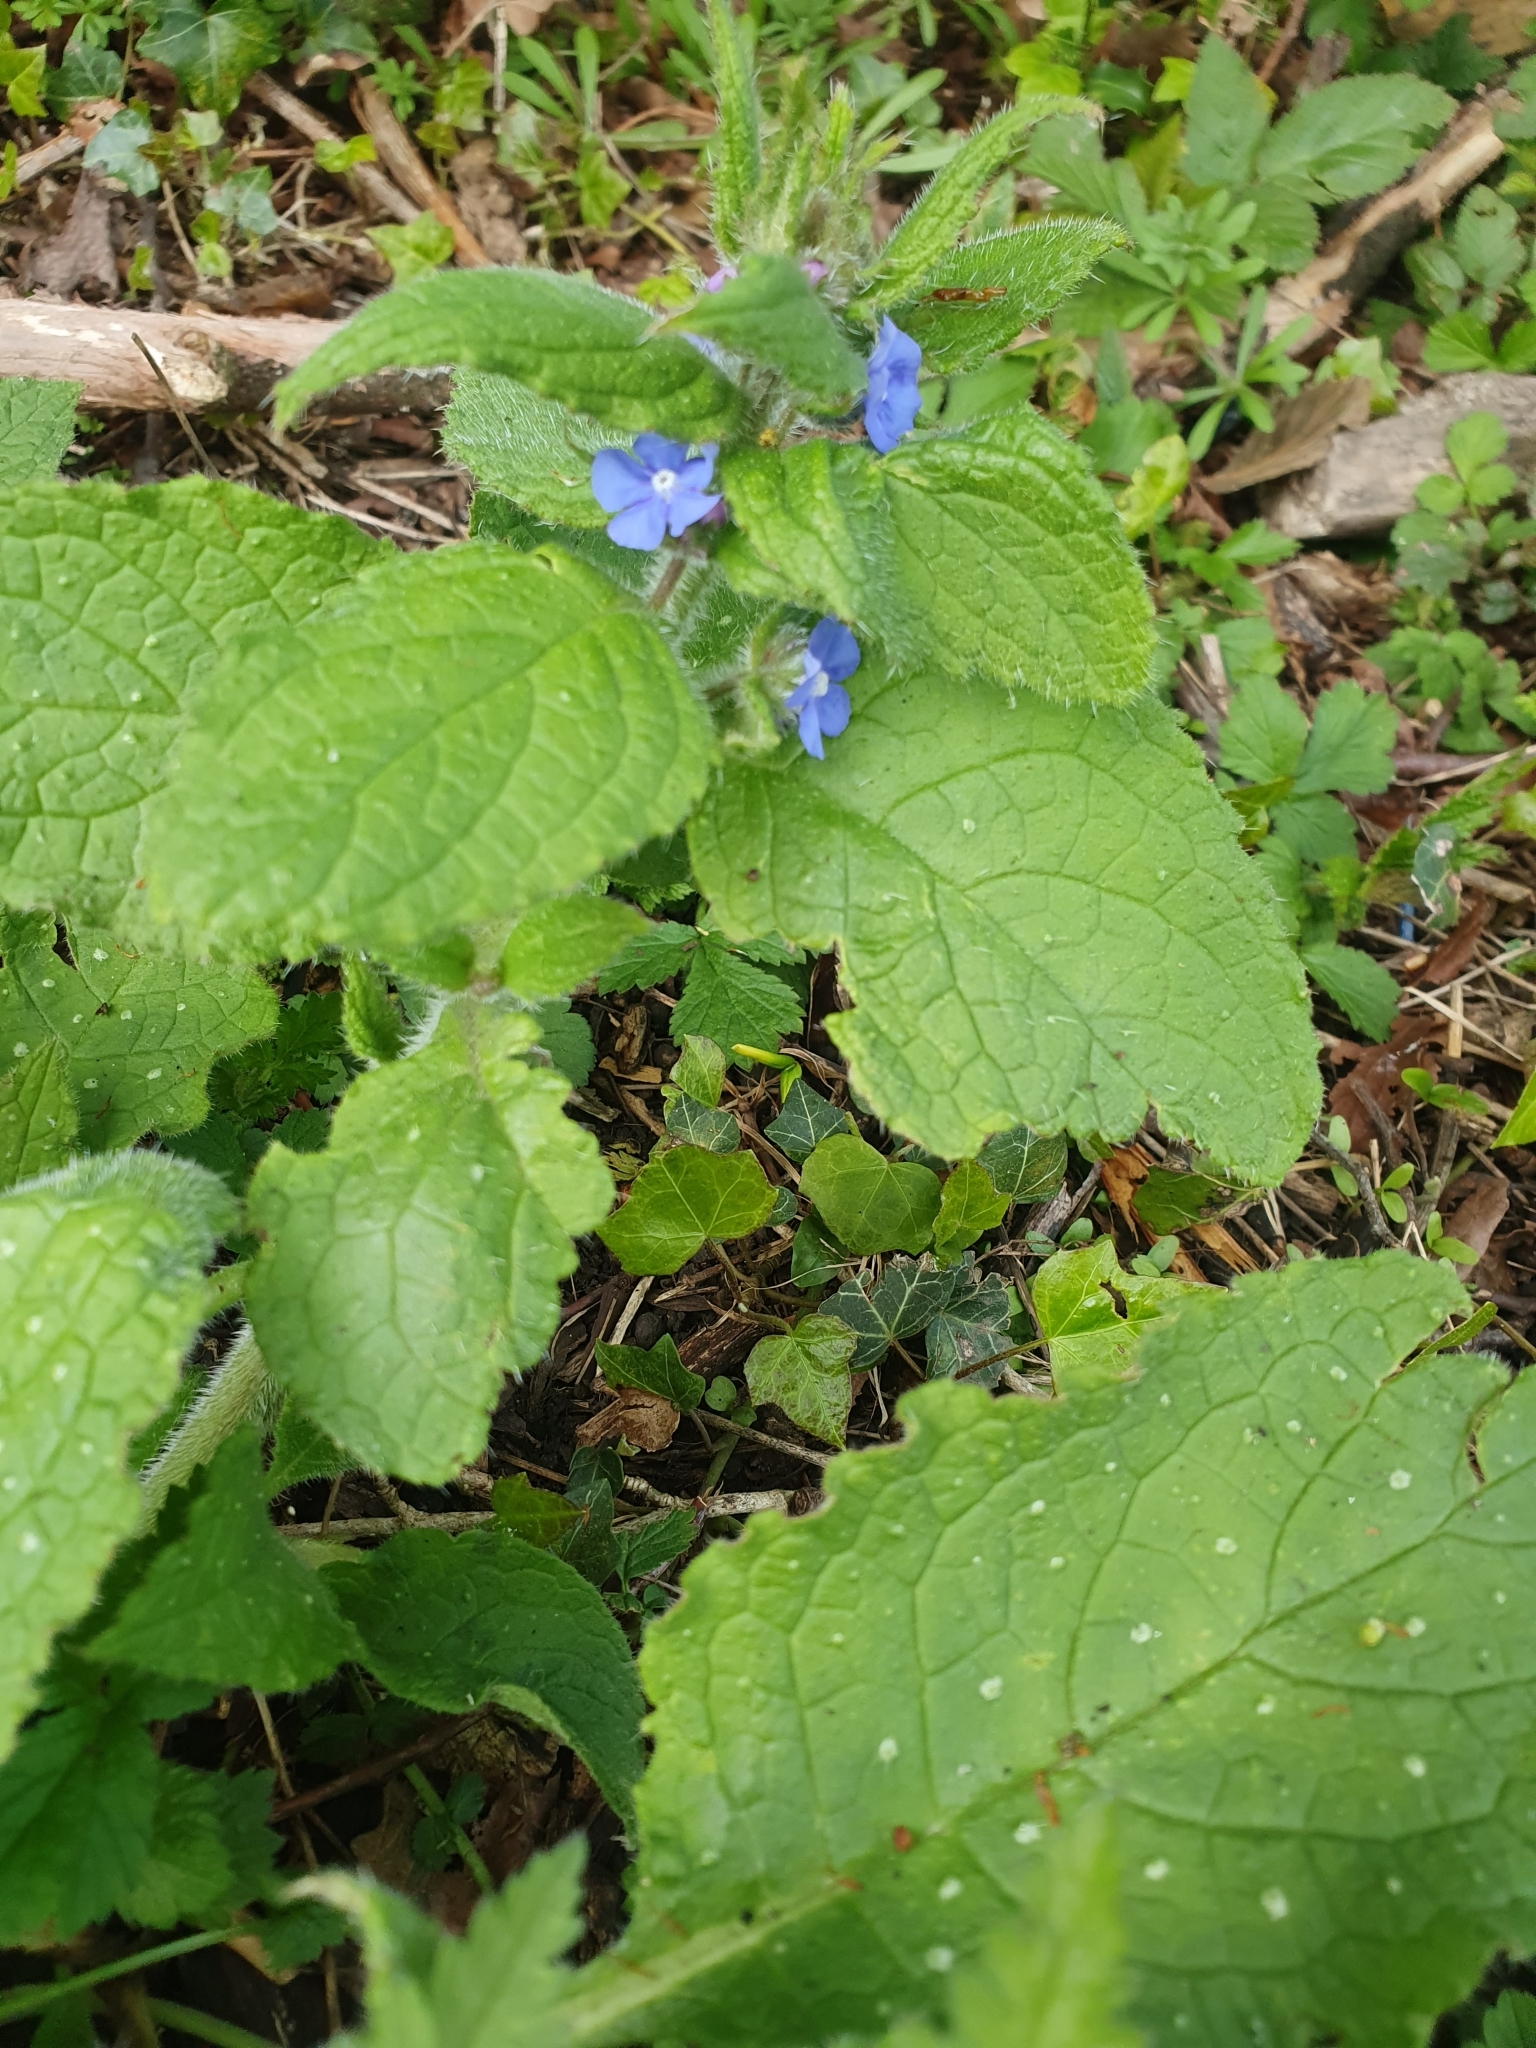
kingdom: Plantae
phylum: Tracheophyta
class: Magnoliopsida
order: Boraginales
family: Boraginaceae
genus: Pentaglottis
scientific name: Pentaglottis sempervirens
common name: Green alkanet
